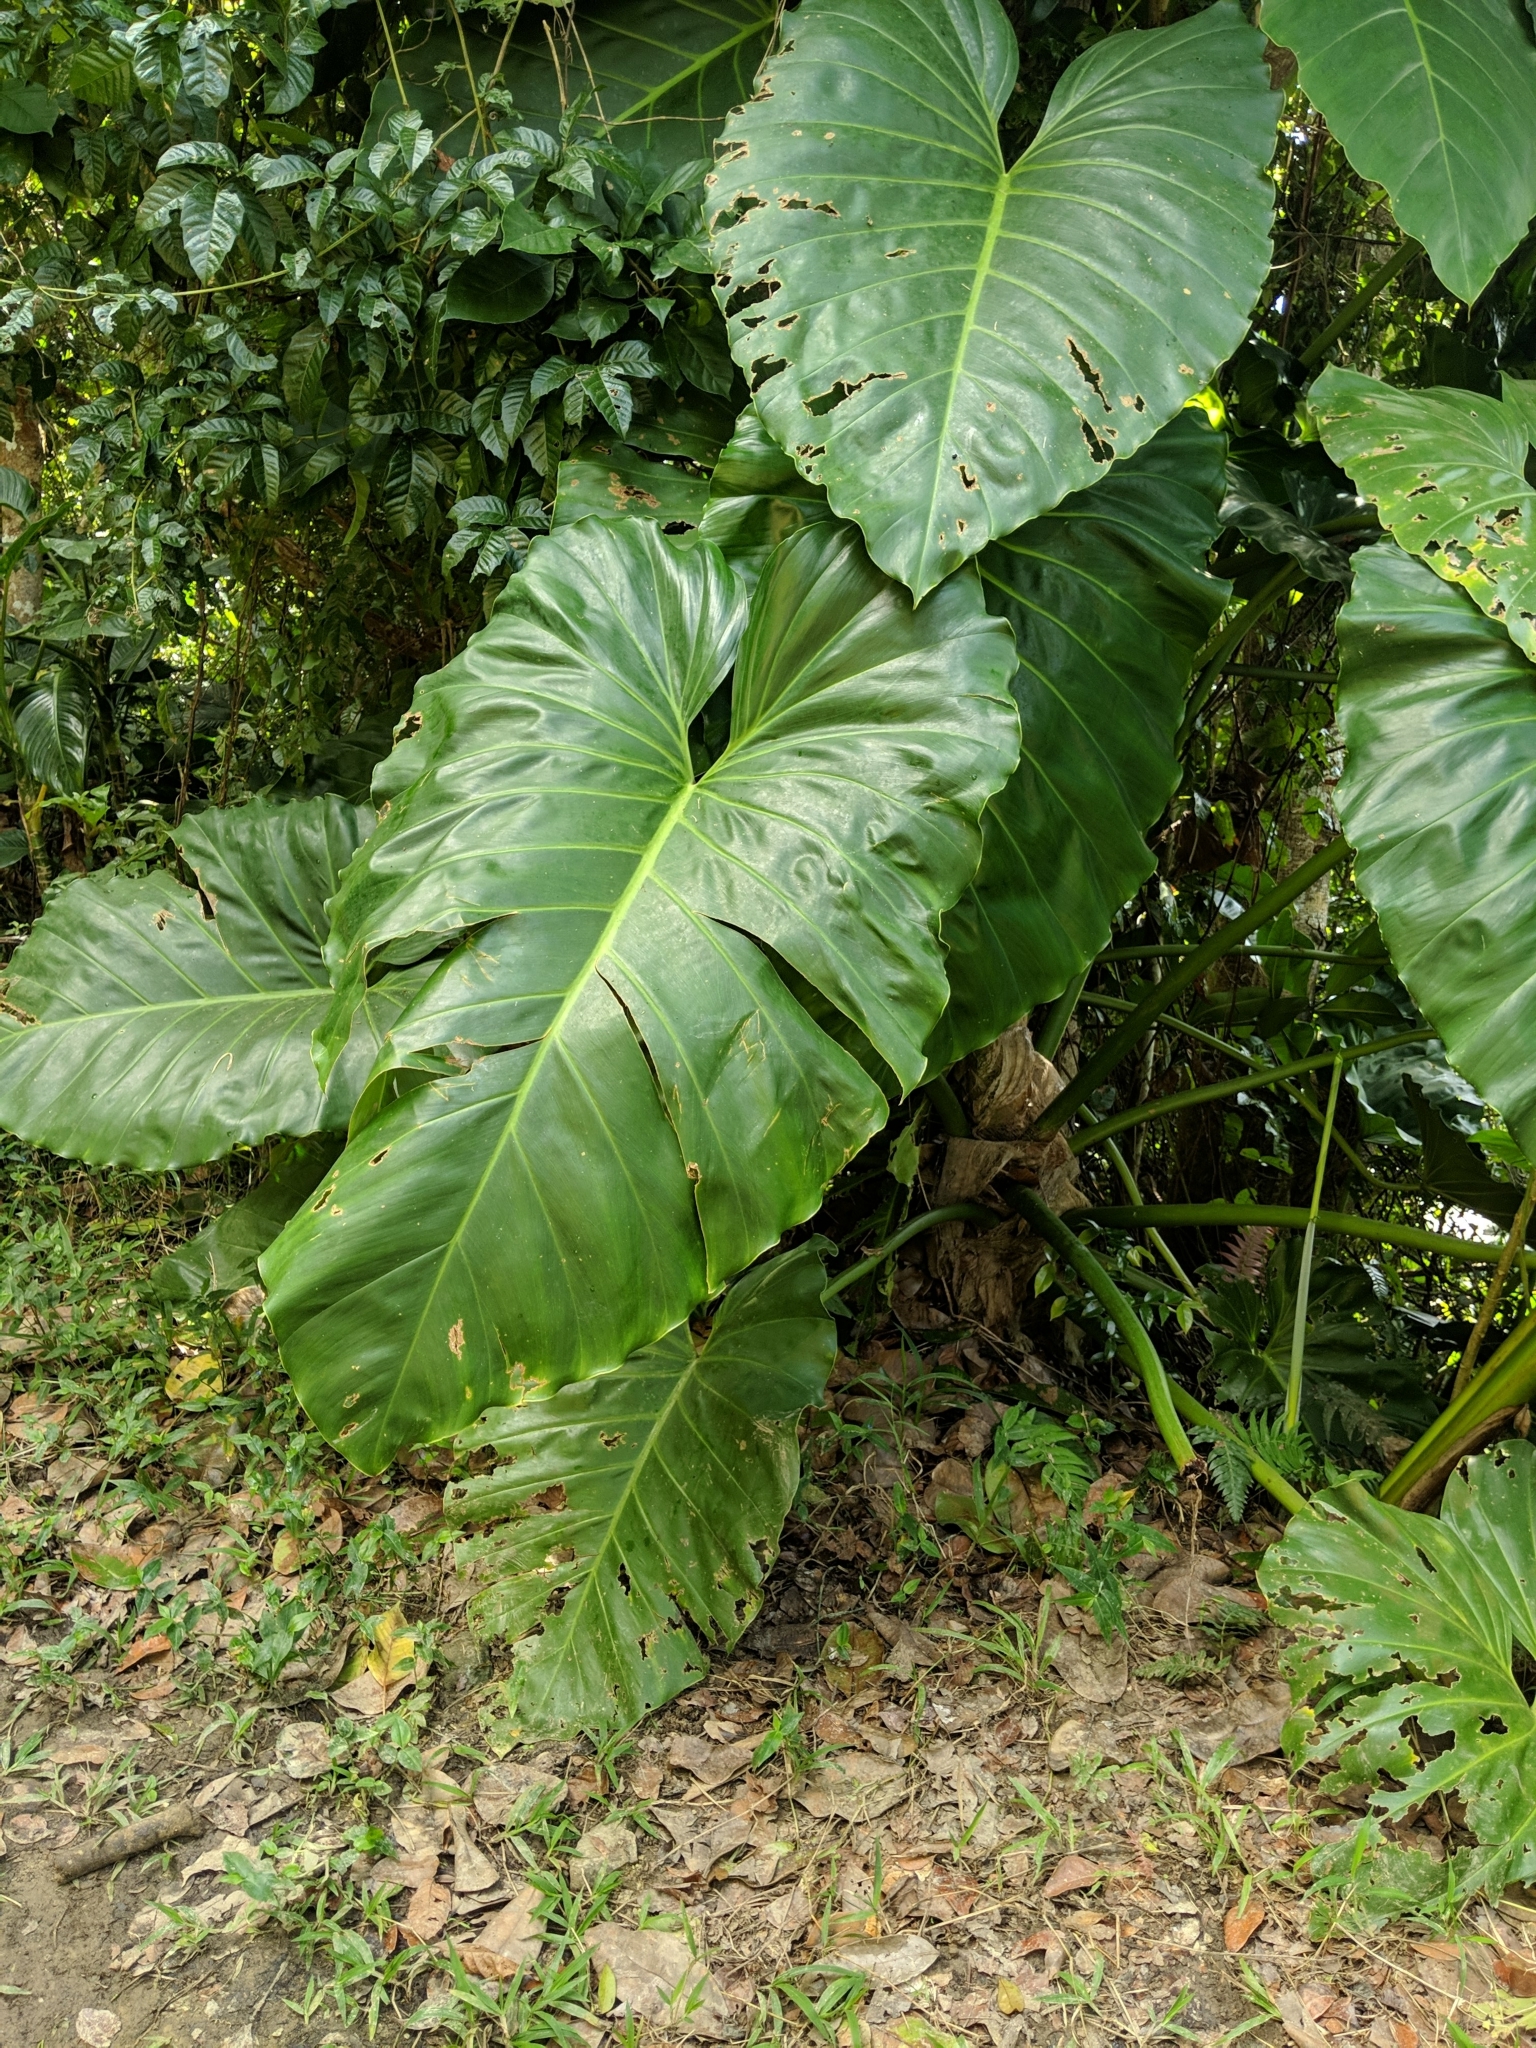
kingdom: Plantae
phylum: Tracheophyta
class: Liliopsida
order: Alismatales
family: Araceae
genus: Philodendron
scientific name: Philodendron giganteum
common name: Giant philodendron
